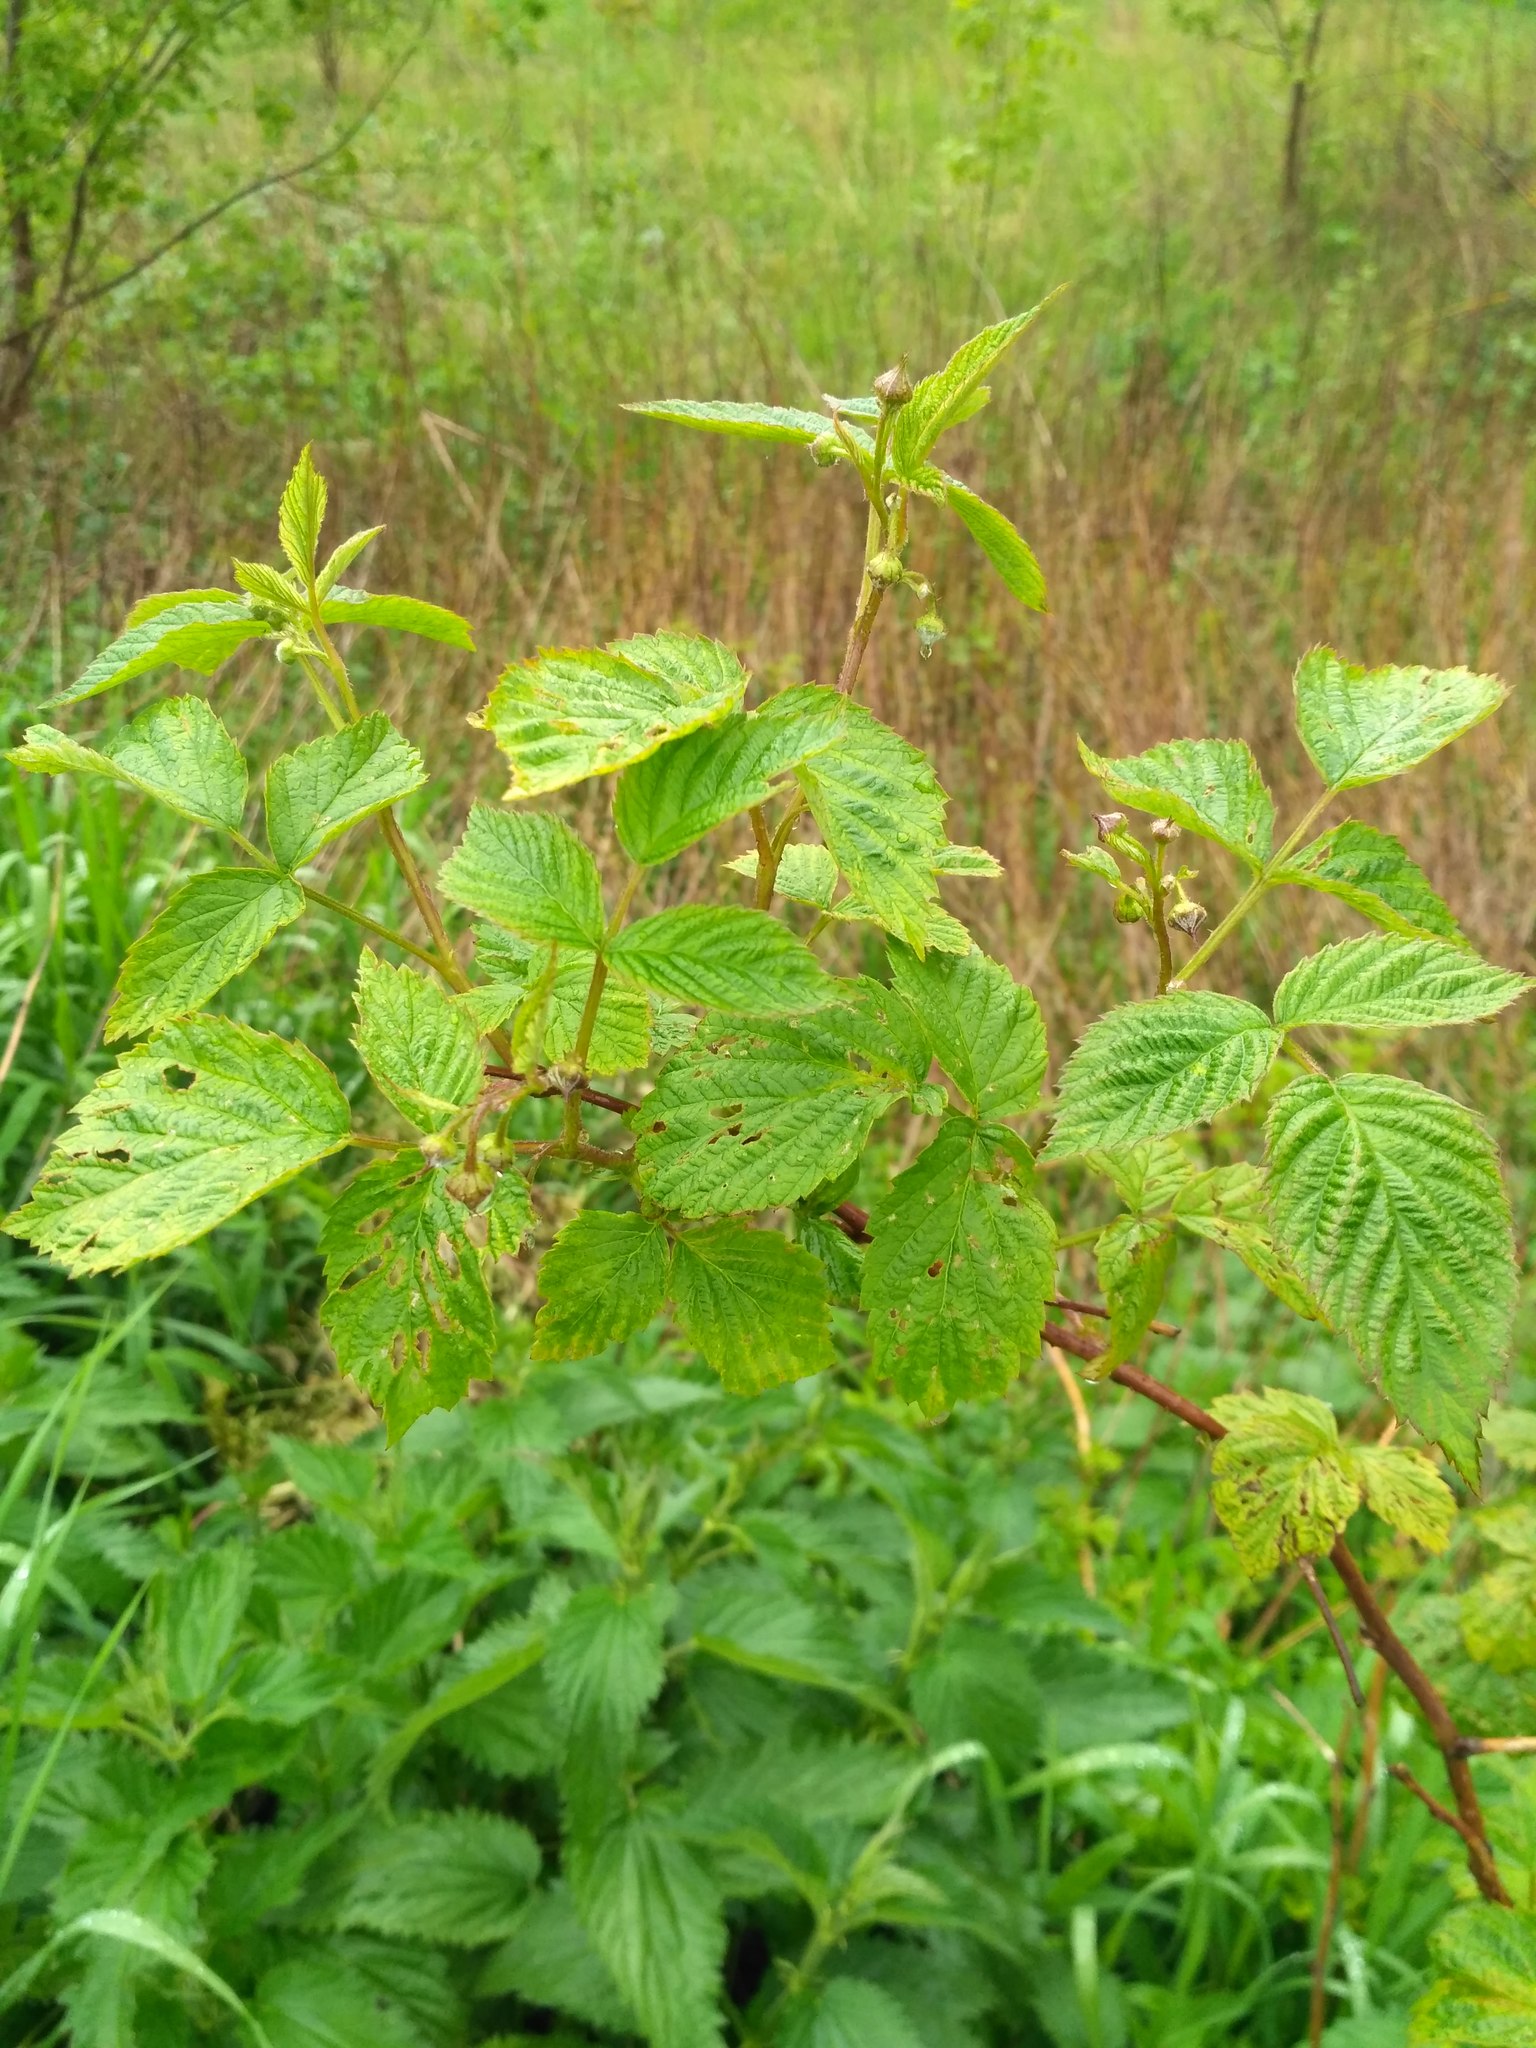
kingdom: Plantae
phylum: Tracheophyta
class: Magnoliopsida
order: Rosales
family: Rosaceae
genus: Rubus
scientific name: Rubus idaeus
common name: Raspberry
